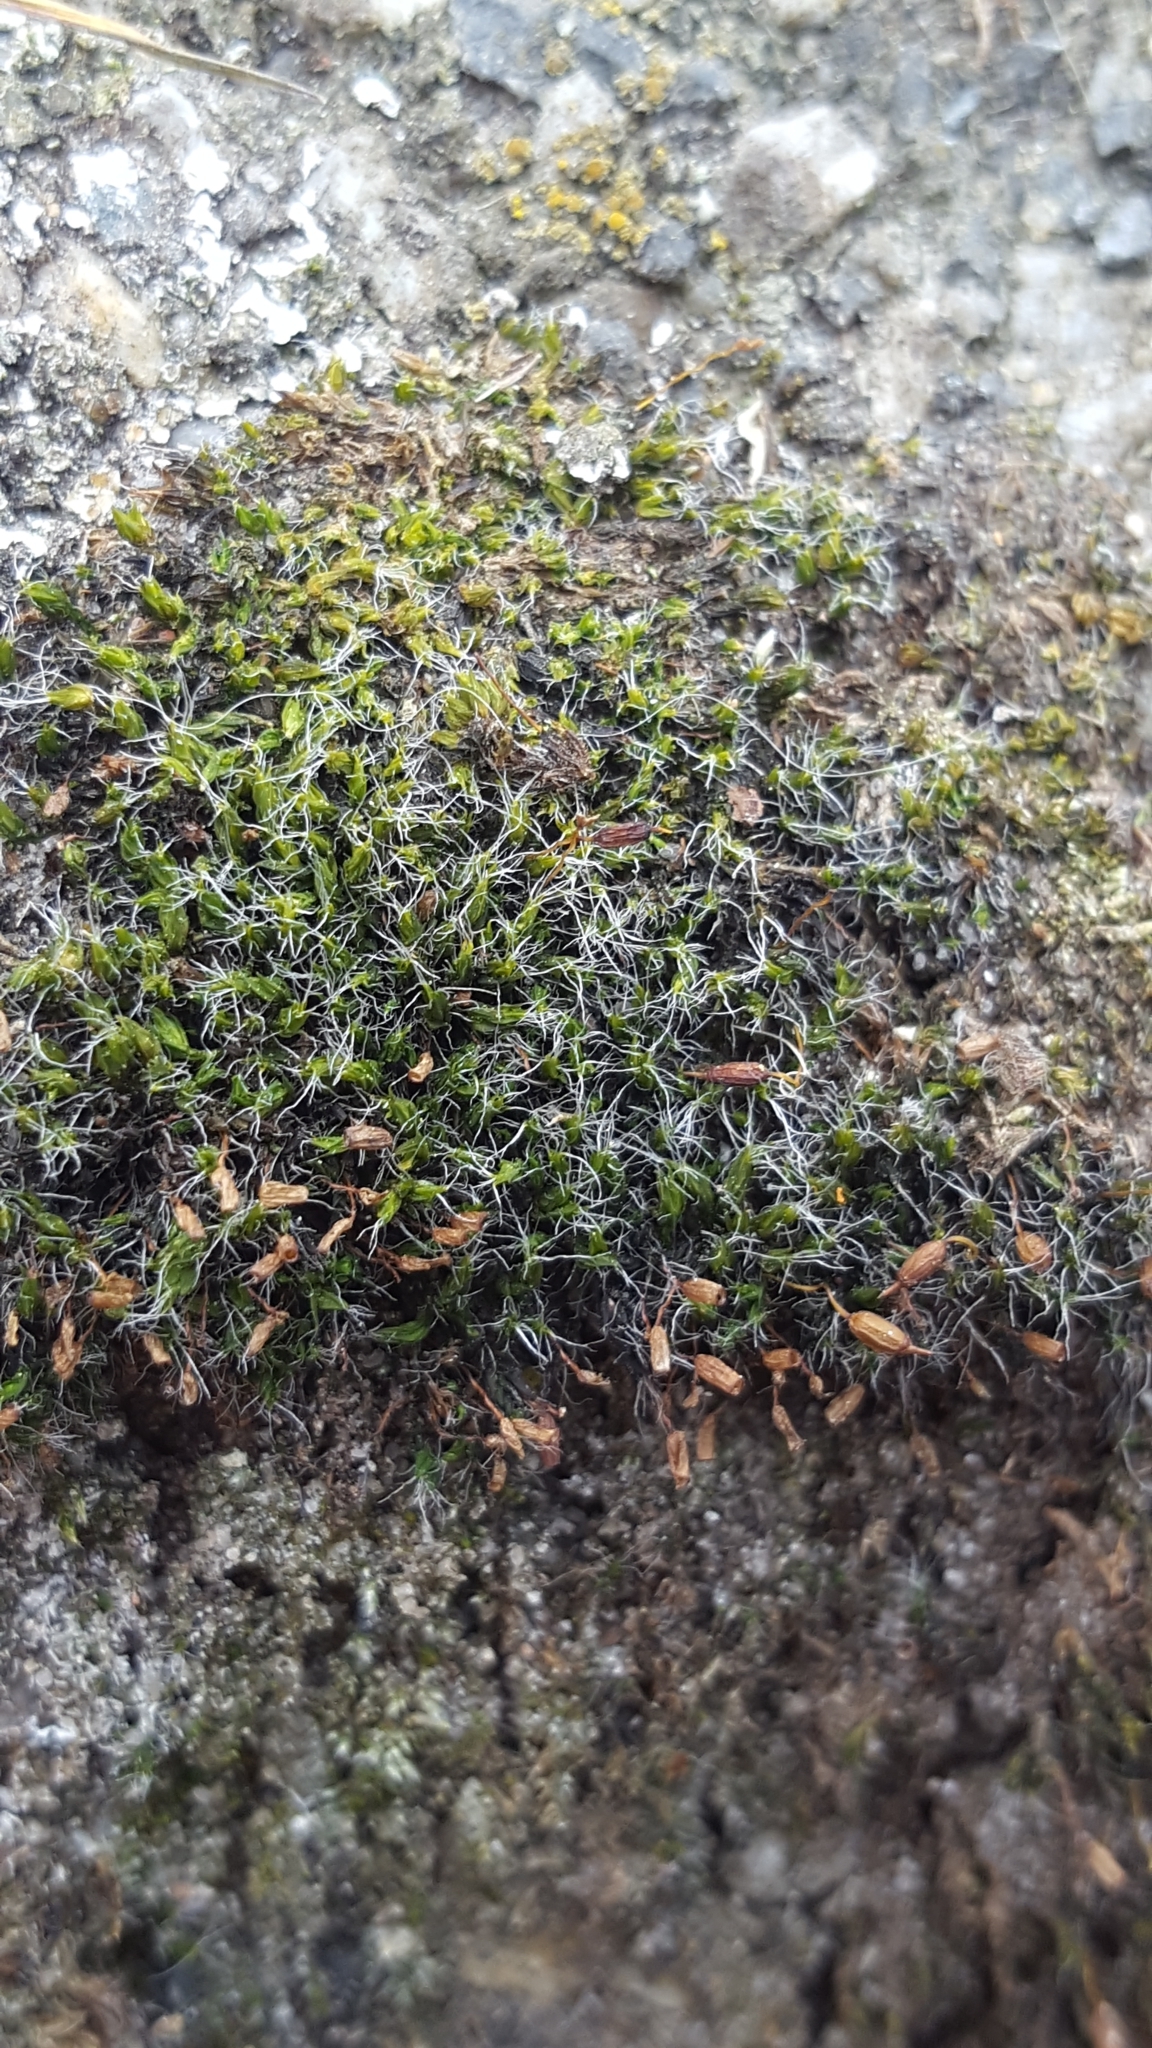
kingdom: Plantae
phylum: Bryophyta
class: Bryopsida
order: Grimmiales
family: Grimmiaceae
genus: Grimmia
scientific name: Grimmia pulvinata
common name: Grey-cushioned grimmia
